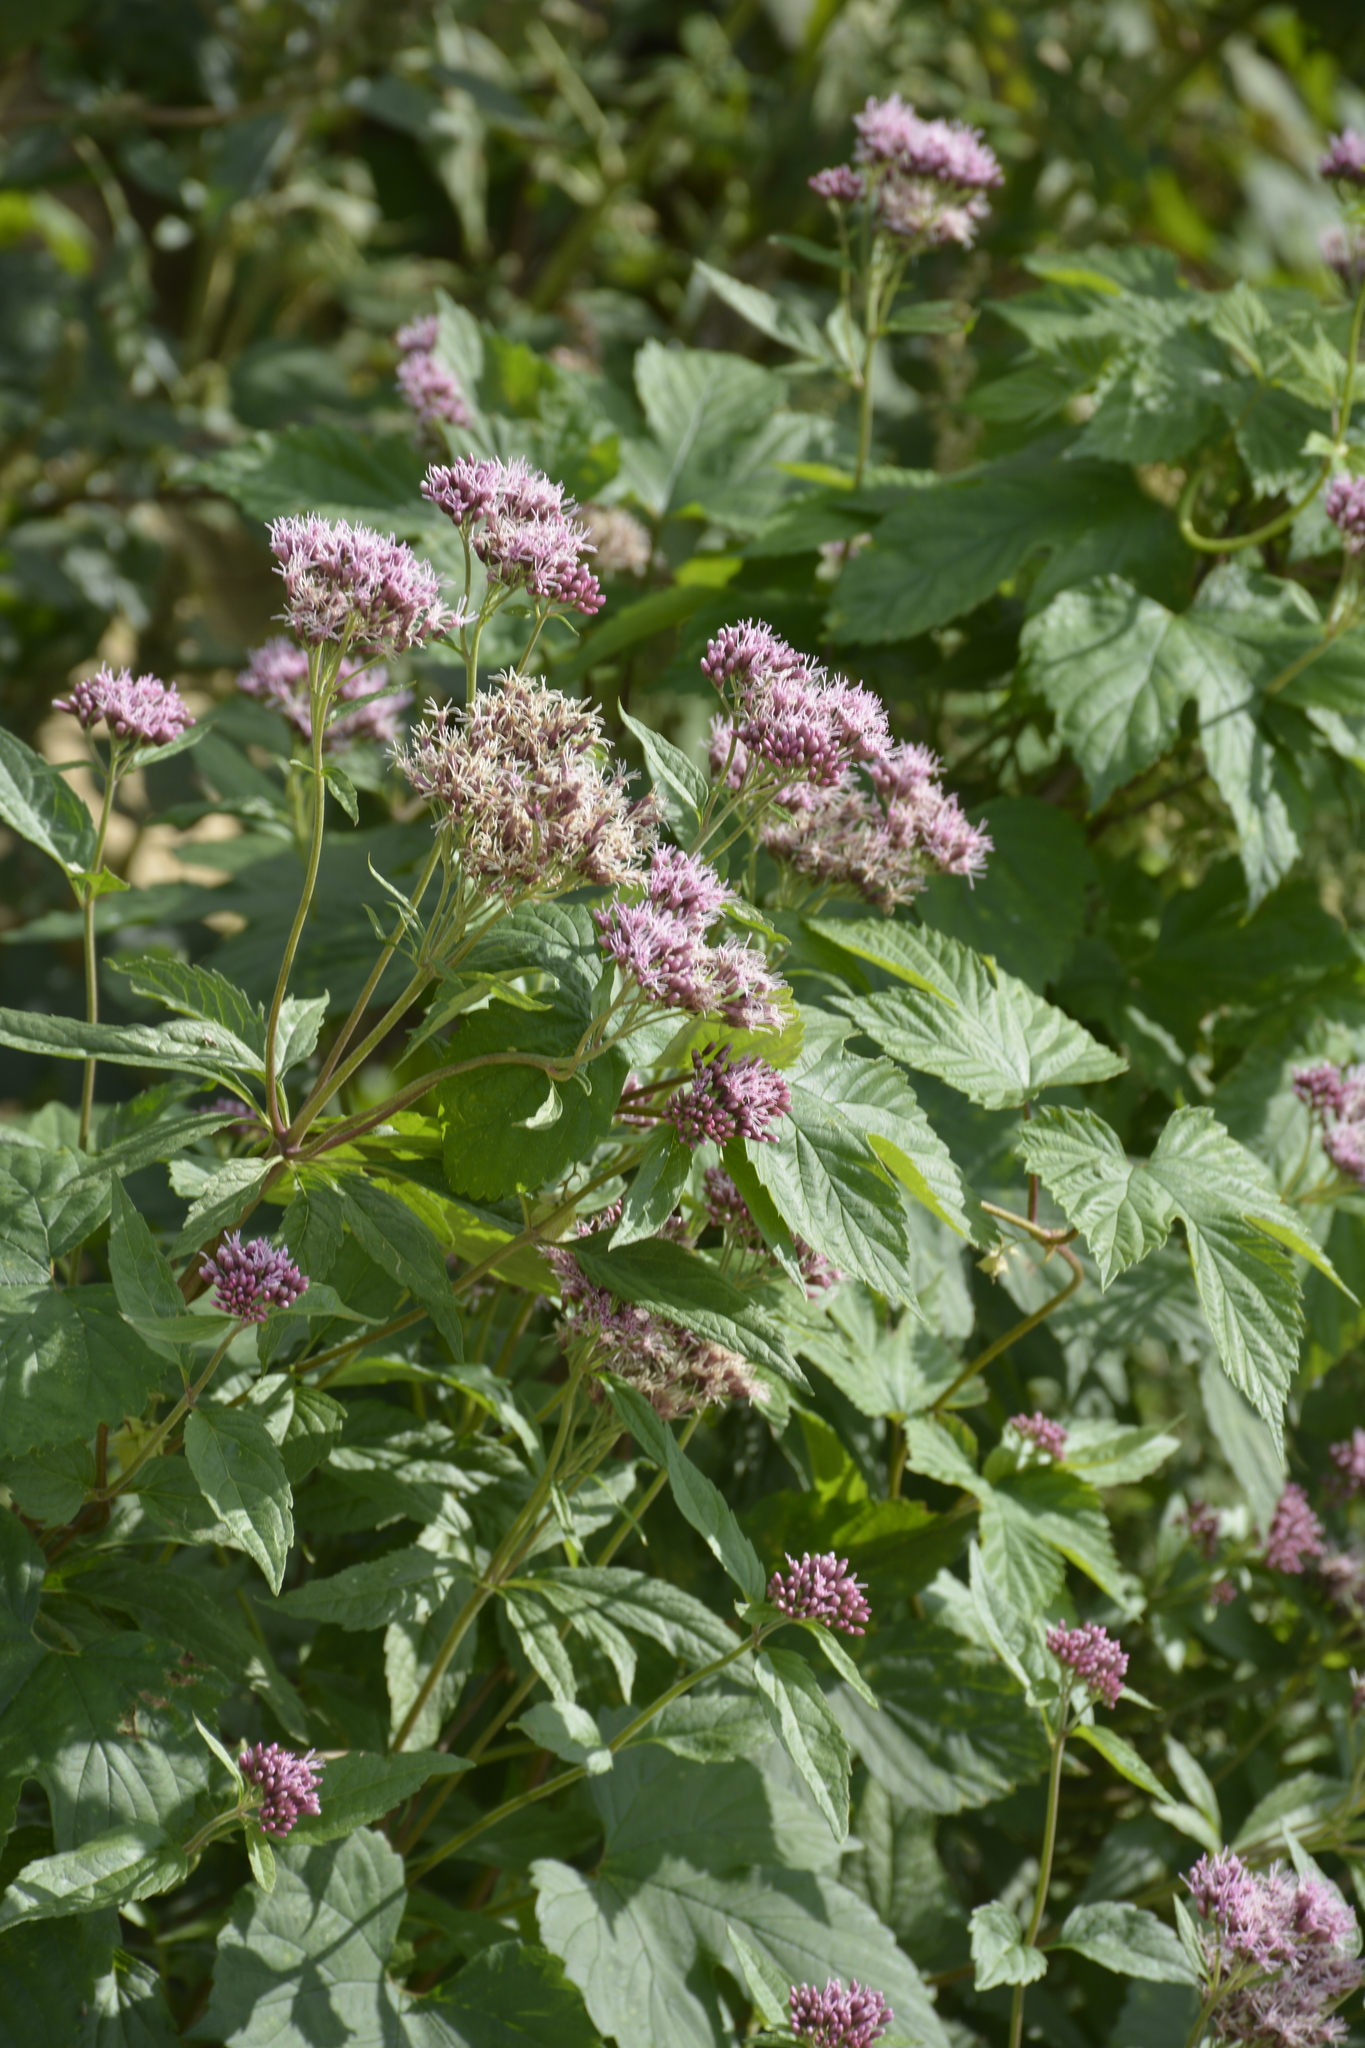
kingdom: Plantae
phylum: Tracheophyta
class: Magnoliopsida
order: Asterales
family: Asteraceae
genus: Eupatorium
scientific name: Eupatorium cannabinum
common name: Hemp-agrimony
